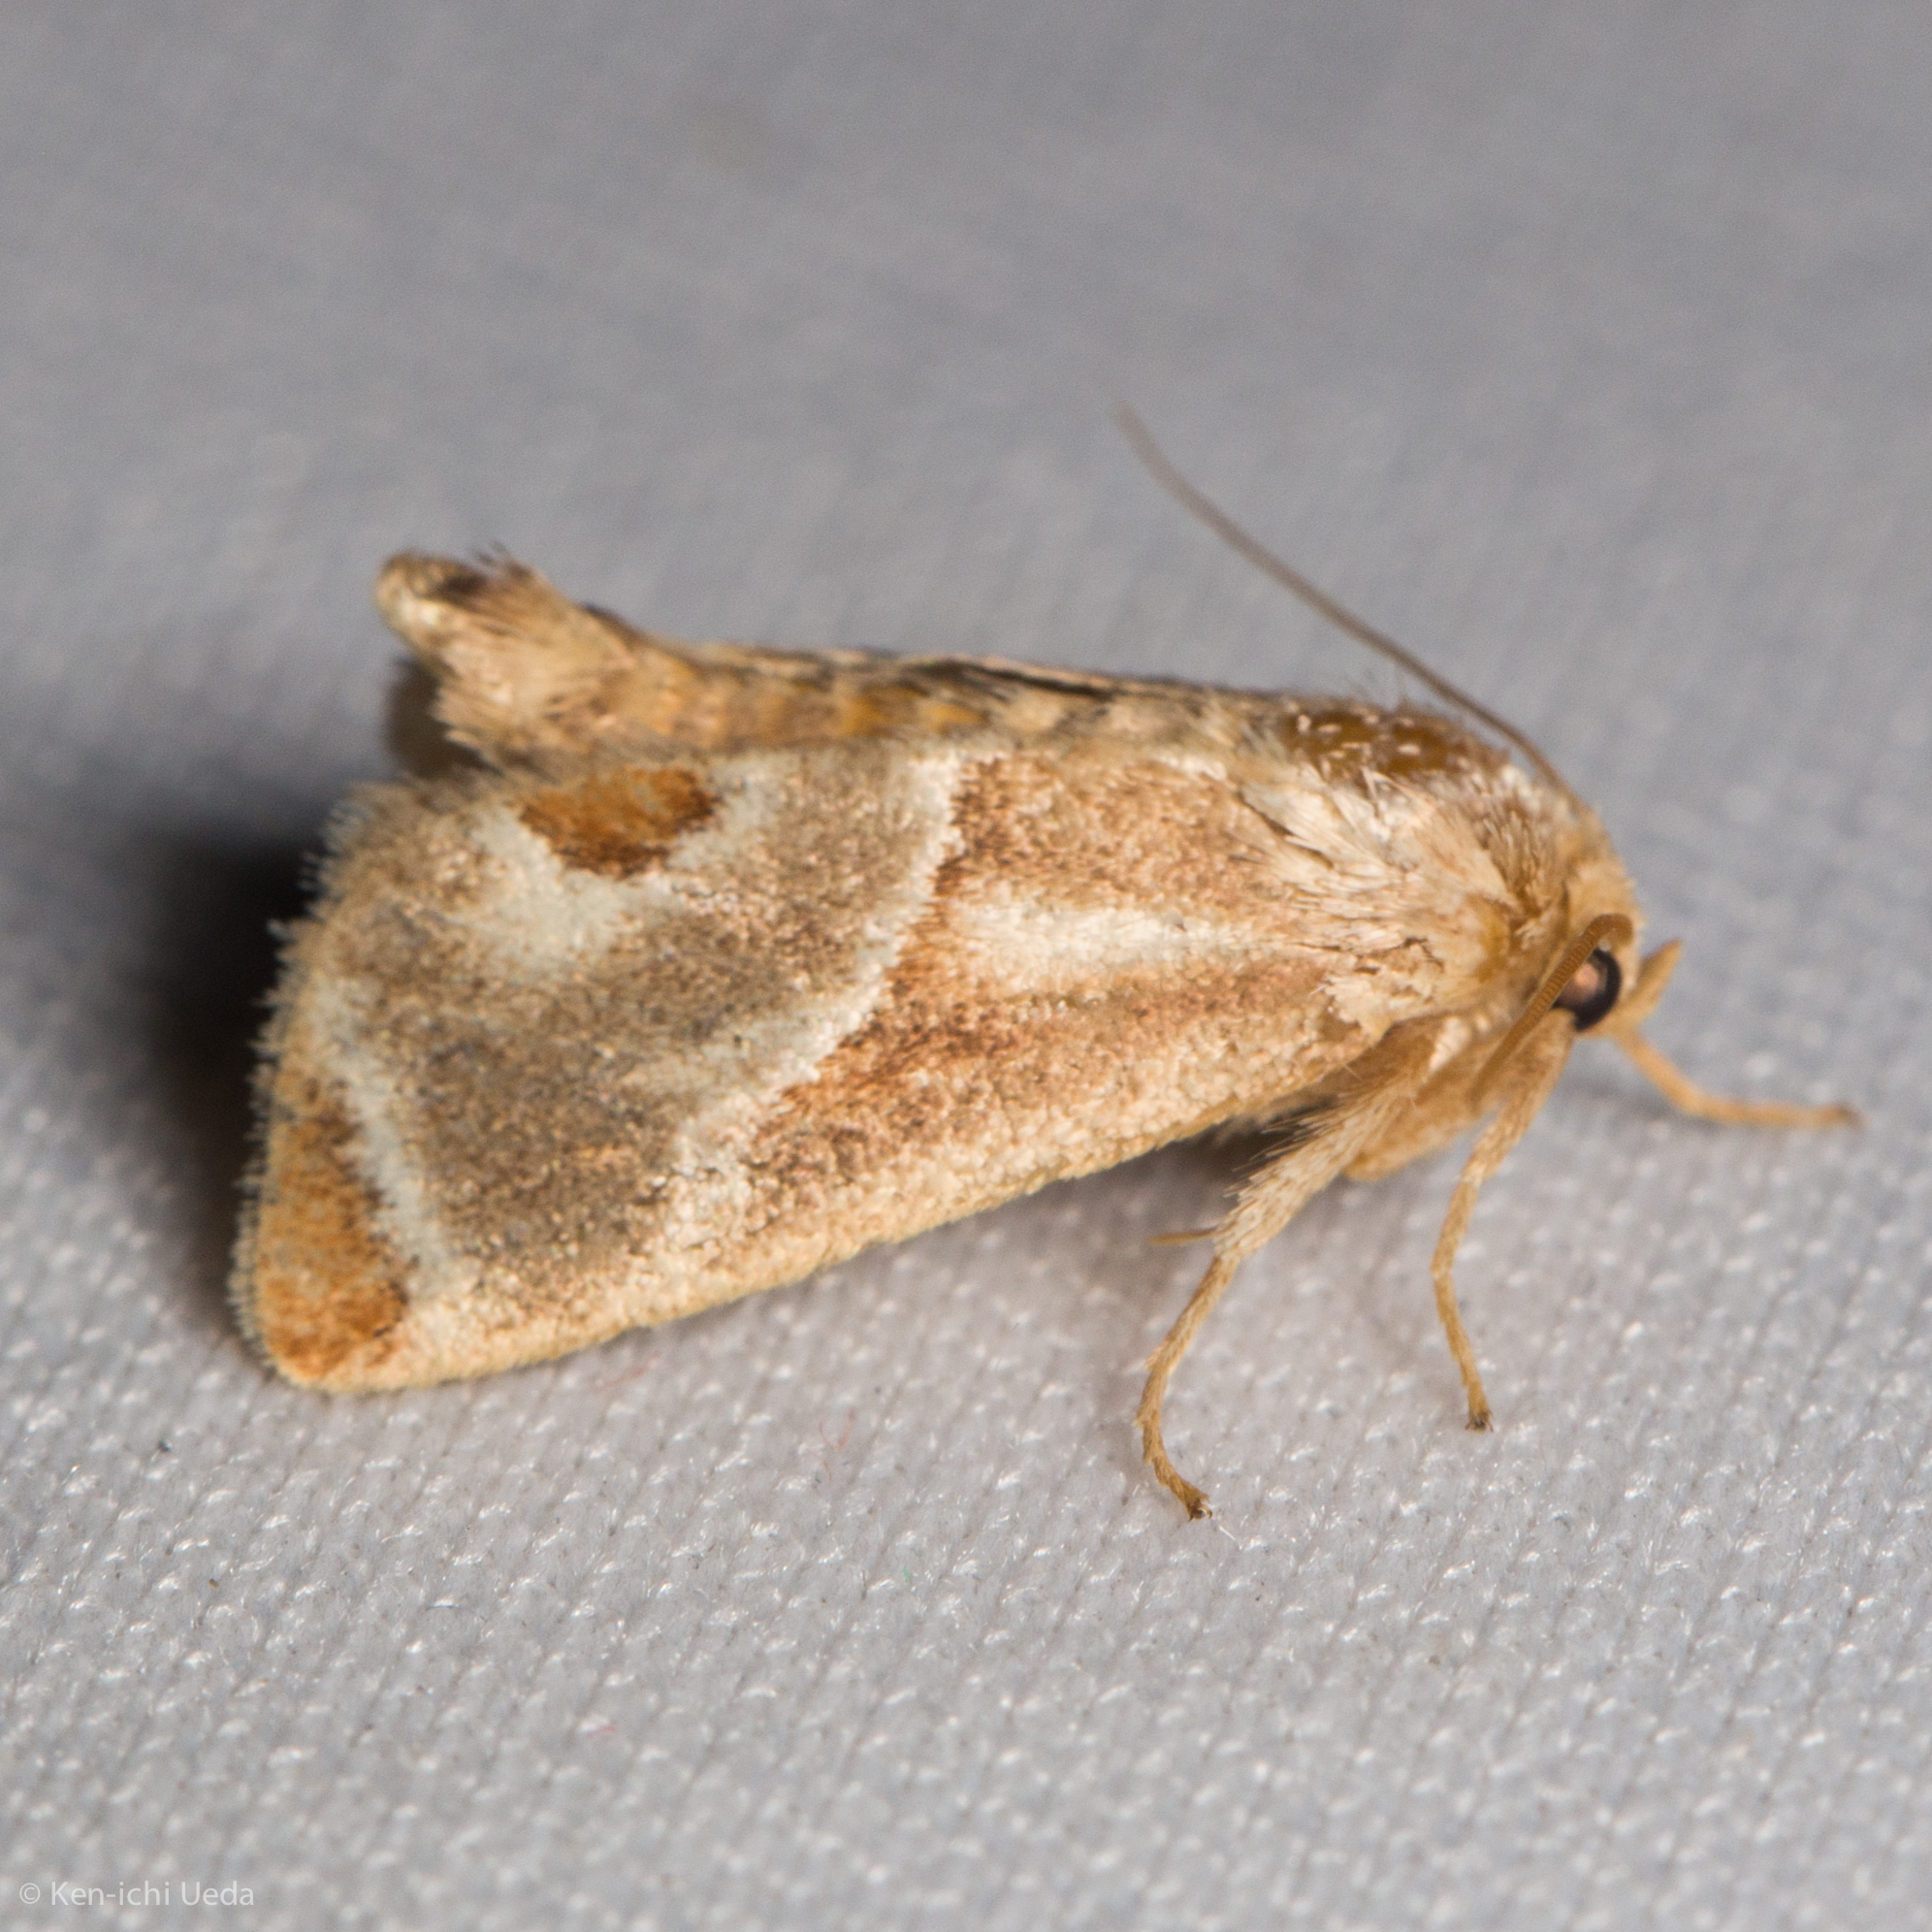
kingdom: Animalia
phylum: Arthropoda
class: Insecta
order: Lepidoptera
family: Limacodidae
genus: Apoda
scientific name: Apoda biguttata
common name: Shagreened slug moth
